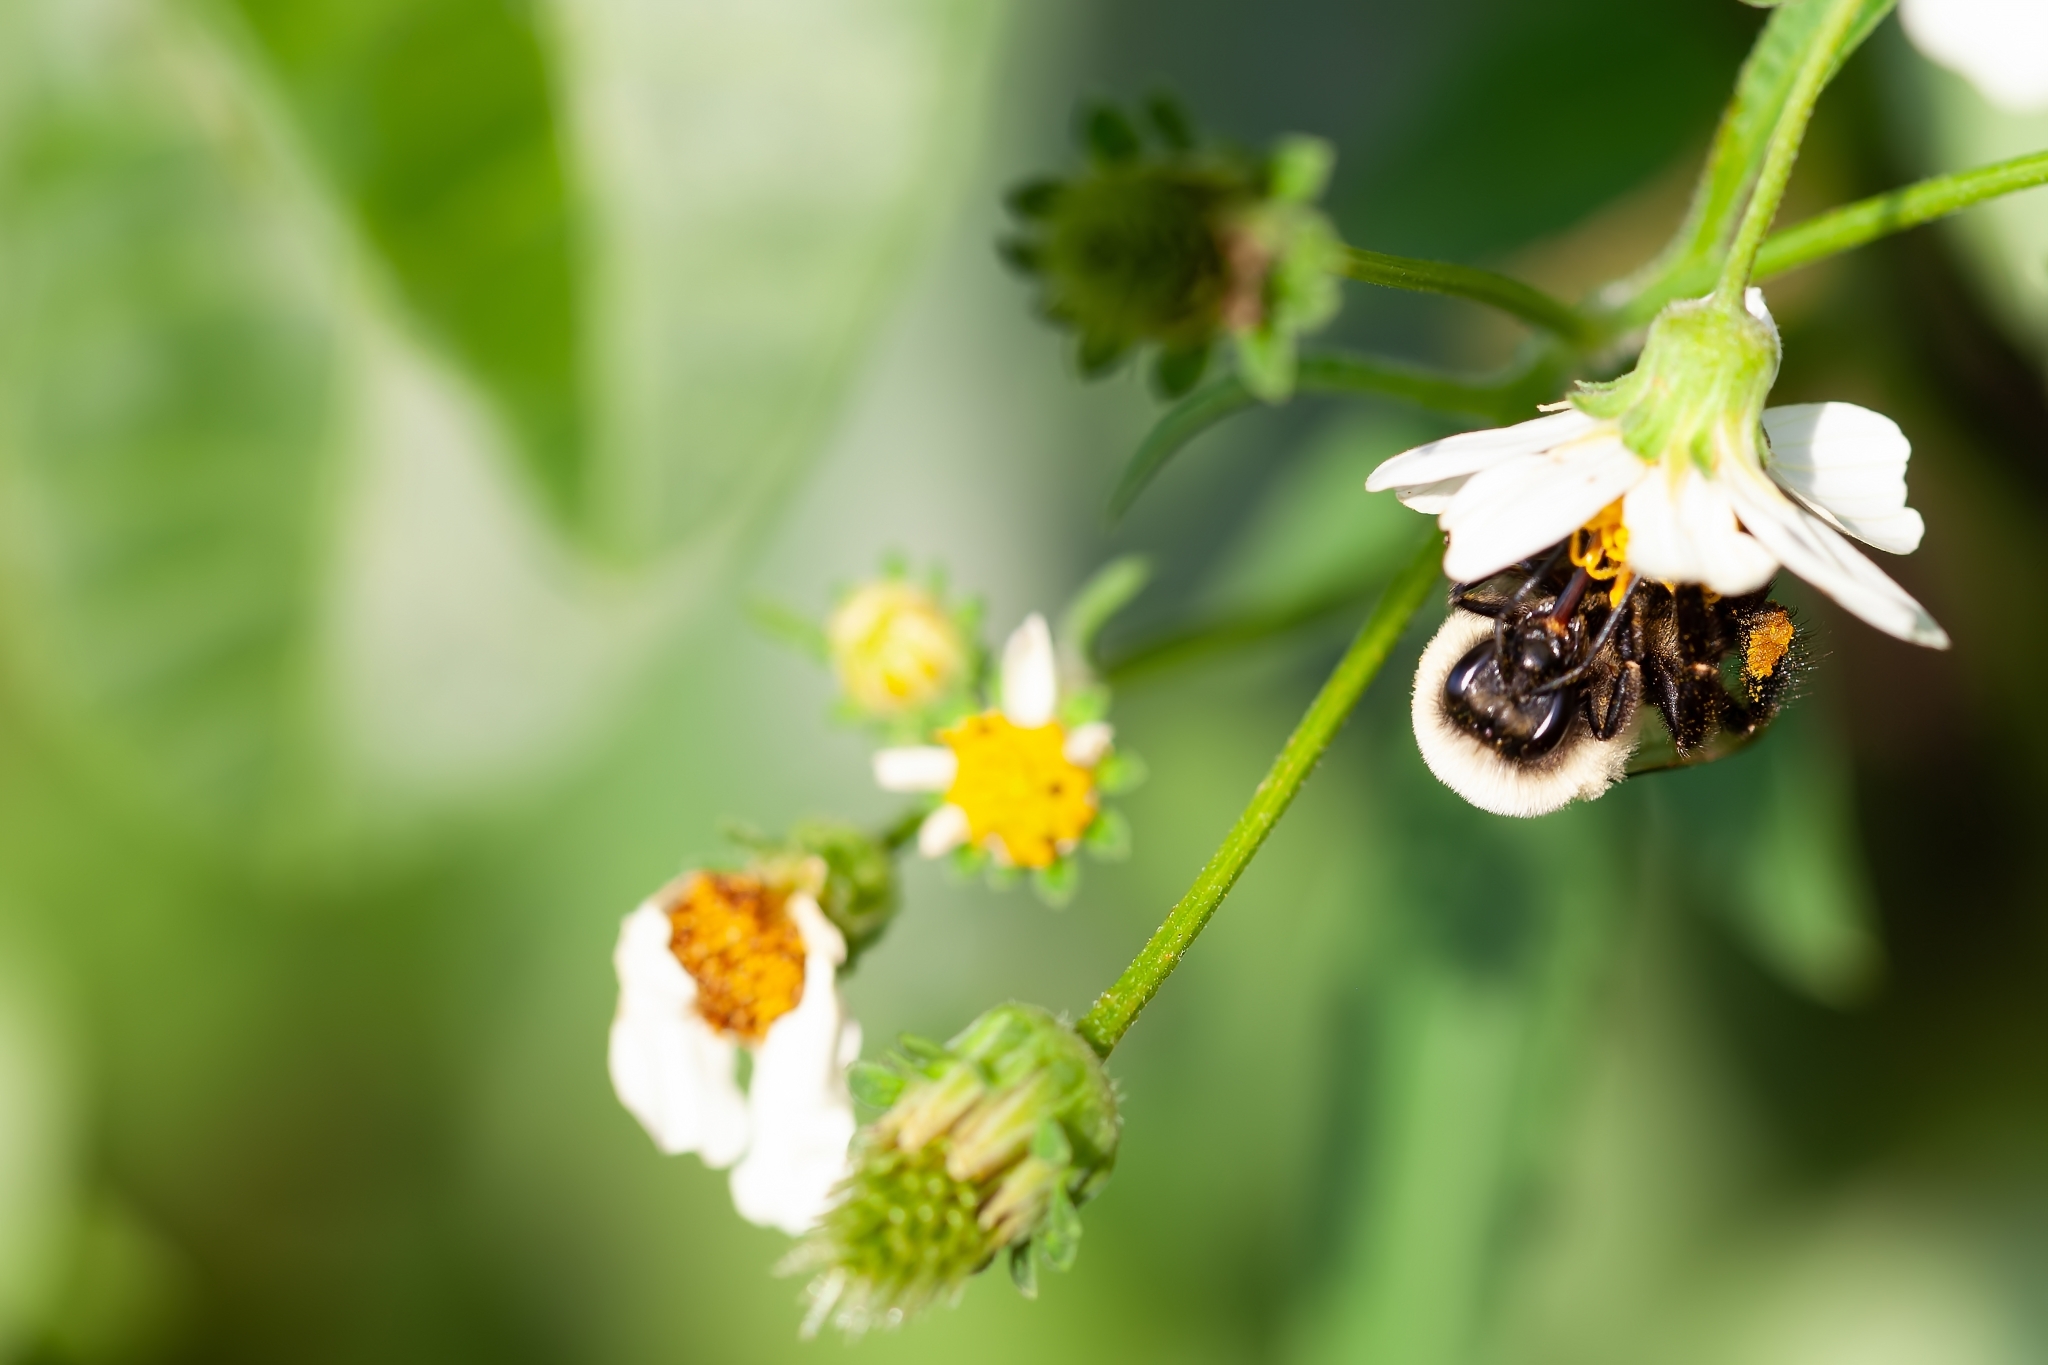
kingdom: Animalia
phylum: Arthropoda
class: Insecta
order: Hymenoptera
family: Apidae
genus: Bombus
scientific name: Bombus impatiens
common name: Common eastern bumble bee
